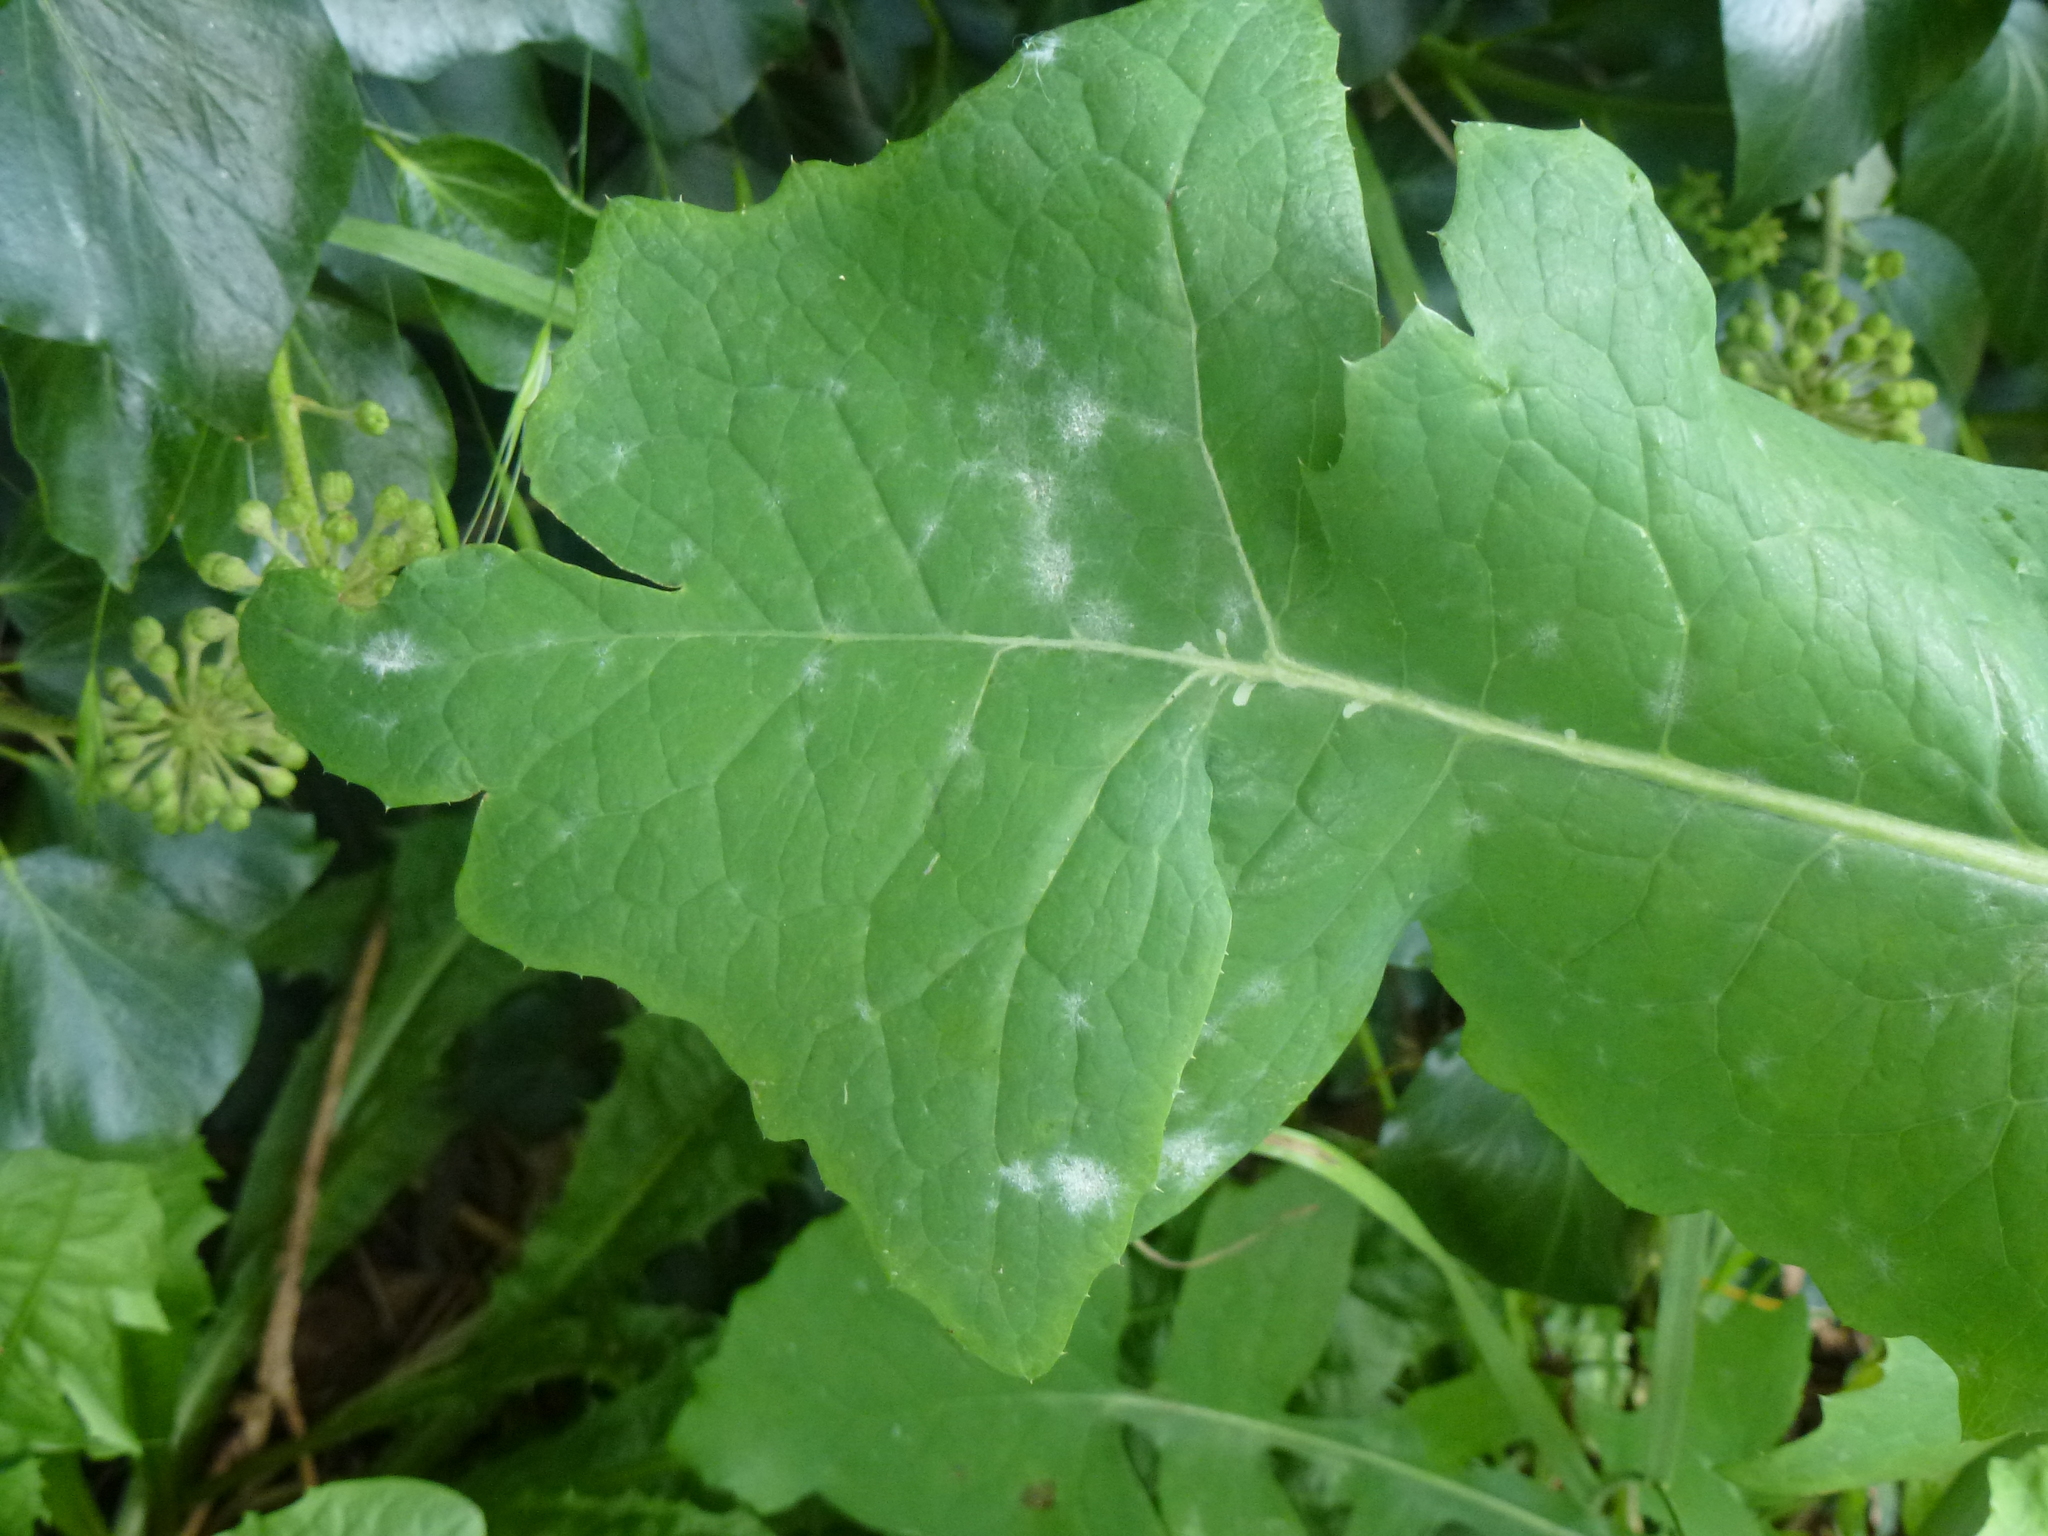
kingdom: Fungi
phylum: Ascomycota
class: Leotiomycetes
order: Helotiales
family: Erysiphaceae
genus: Golovinomyces
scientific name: Golovinomyces sonchicola
